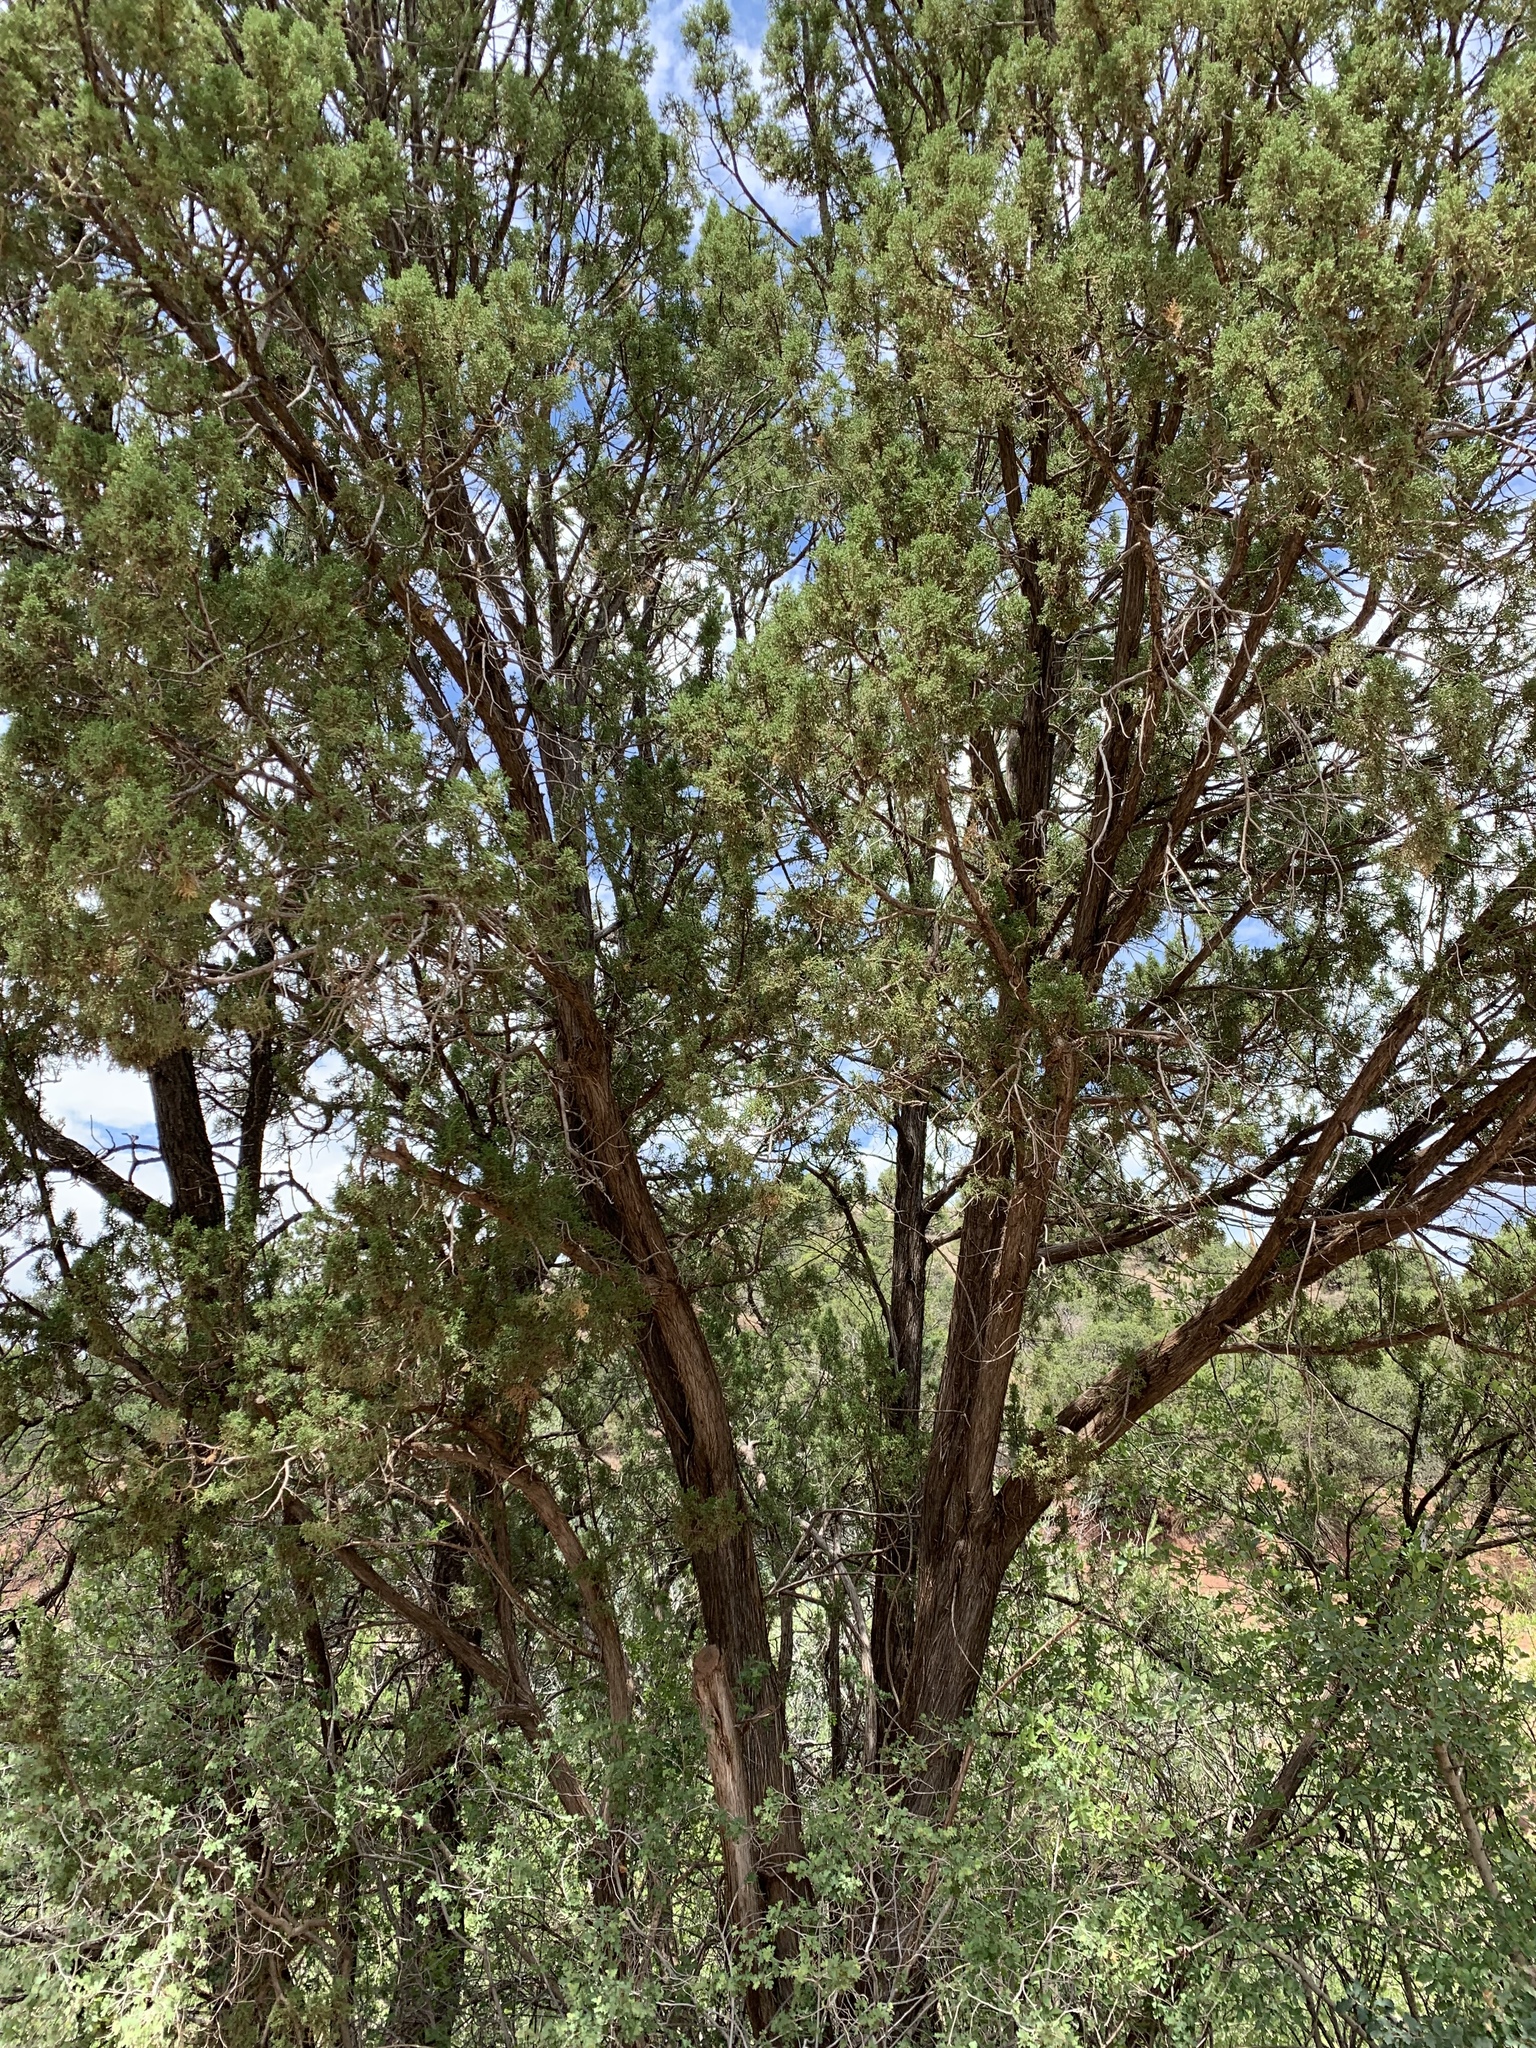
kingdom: Plantae
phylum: Tracheophyta
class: Pinopsida
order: Pinales
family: Cupressaceae
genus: Juniperus
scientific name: Juniperus monosperma
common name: One-seed juniper
